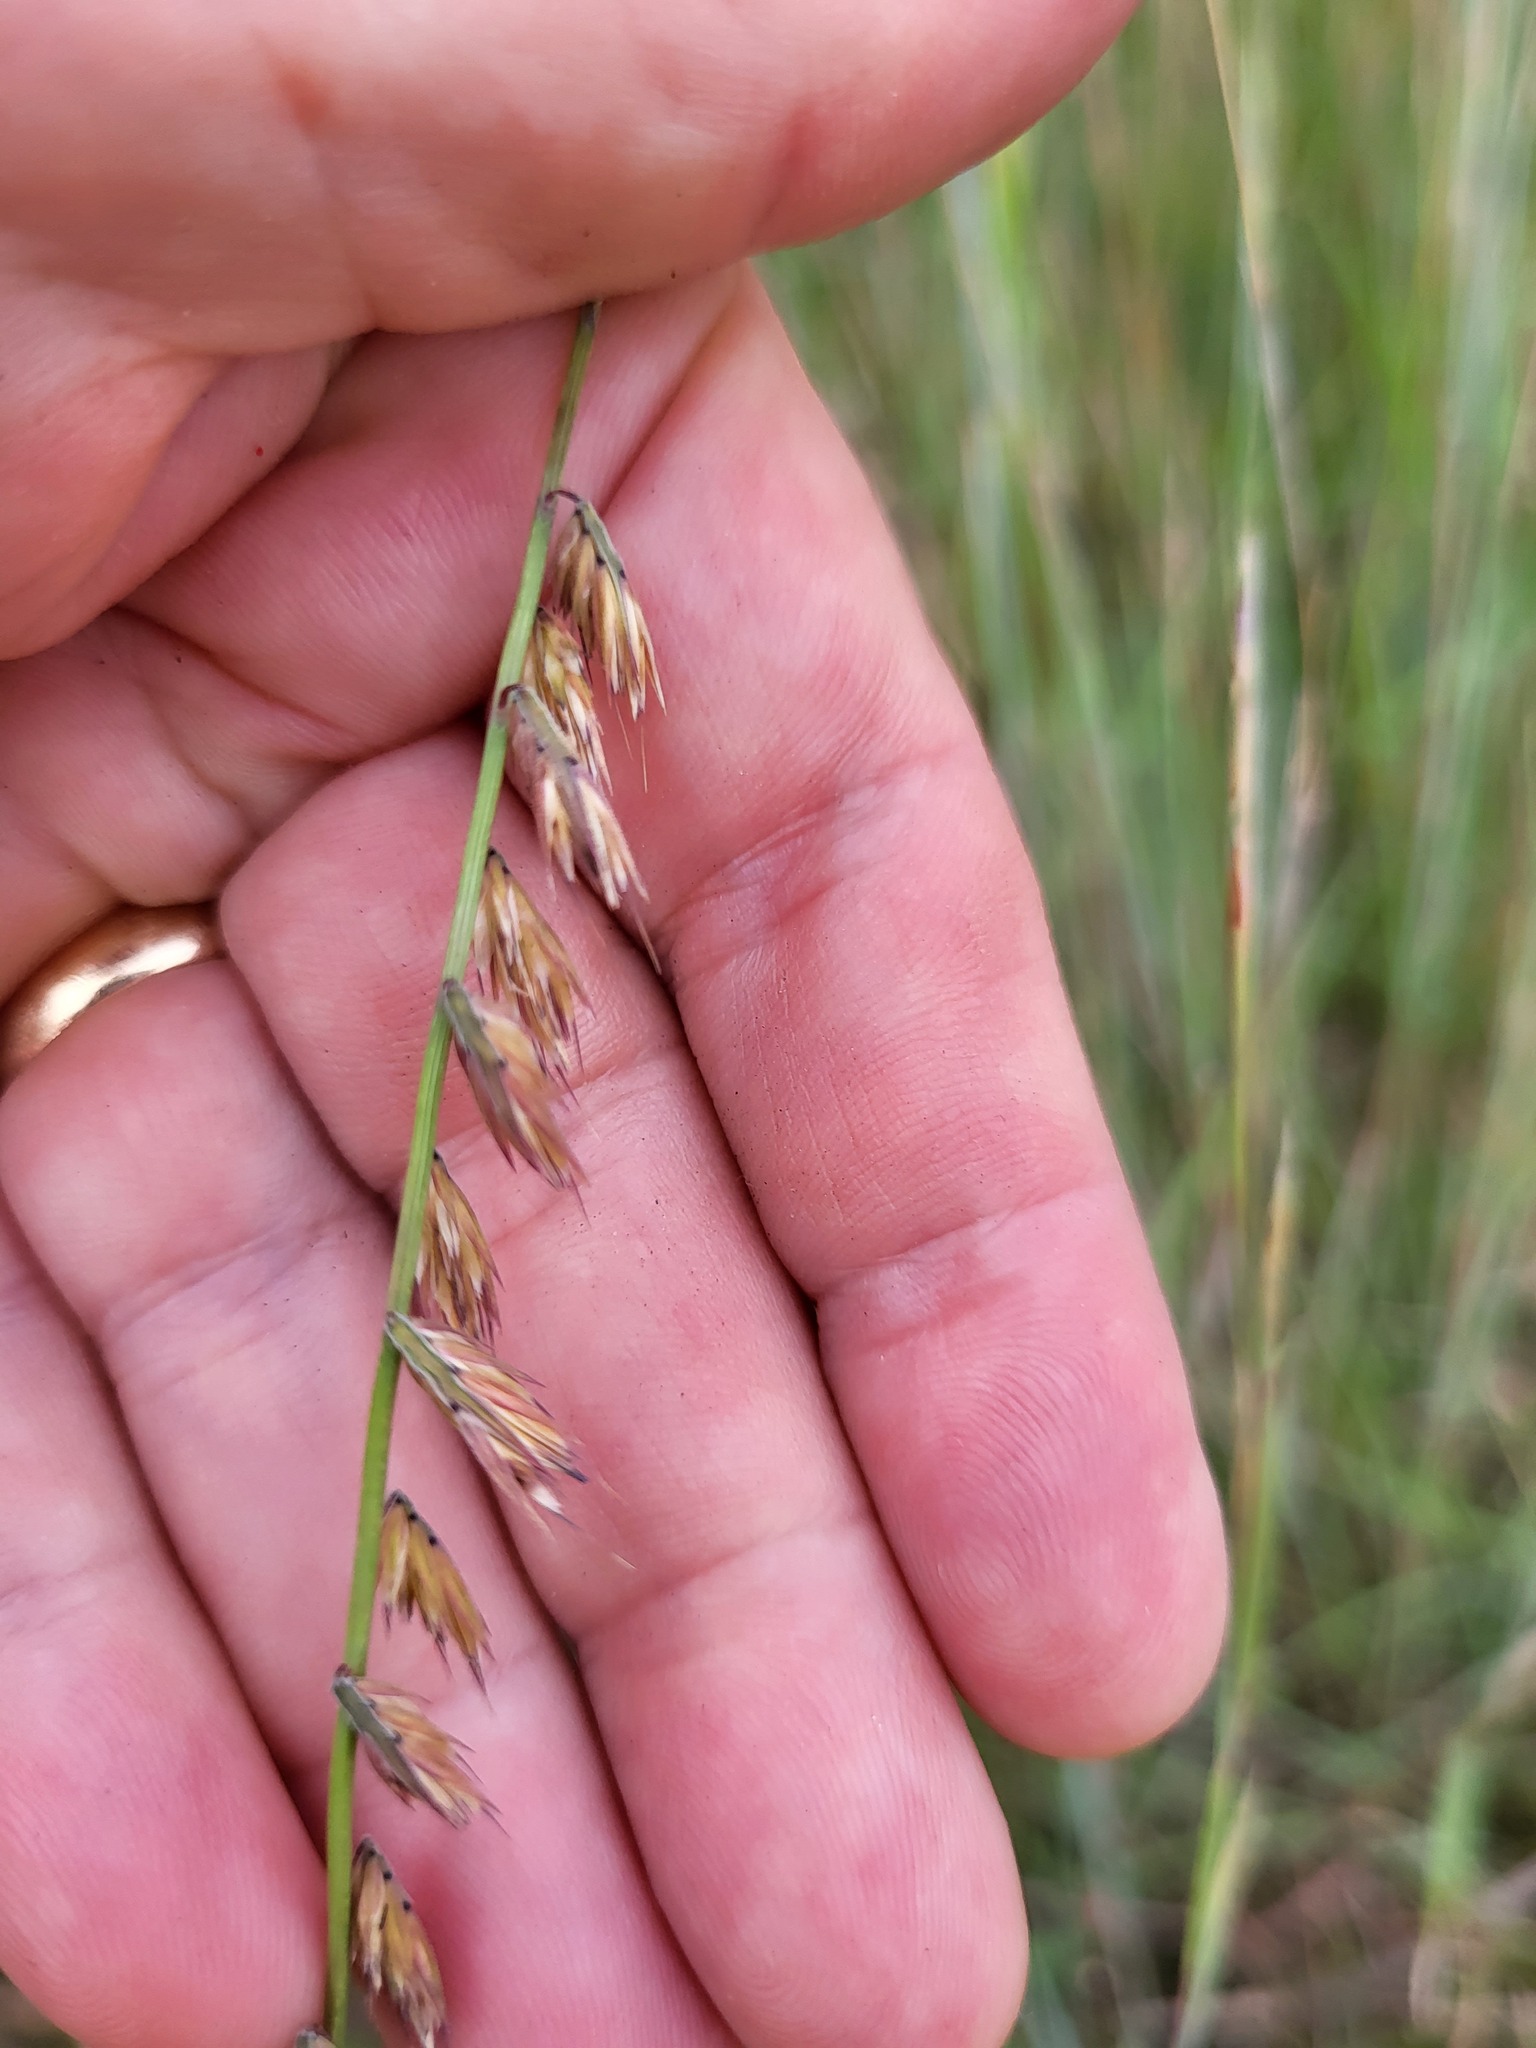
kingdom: Plantae
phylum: Tracheophyta
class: Liliopsida
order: Poales
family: Poaceae
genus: Bouteloua
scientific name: Bouteloua curtipendula
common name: Side-oats grama
